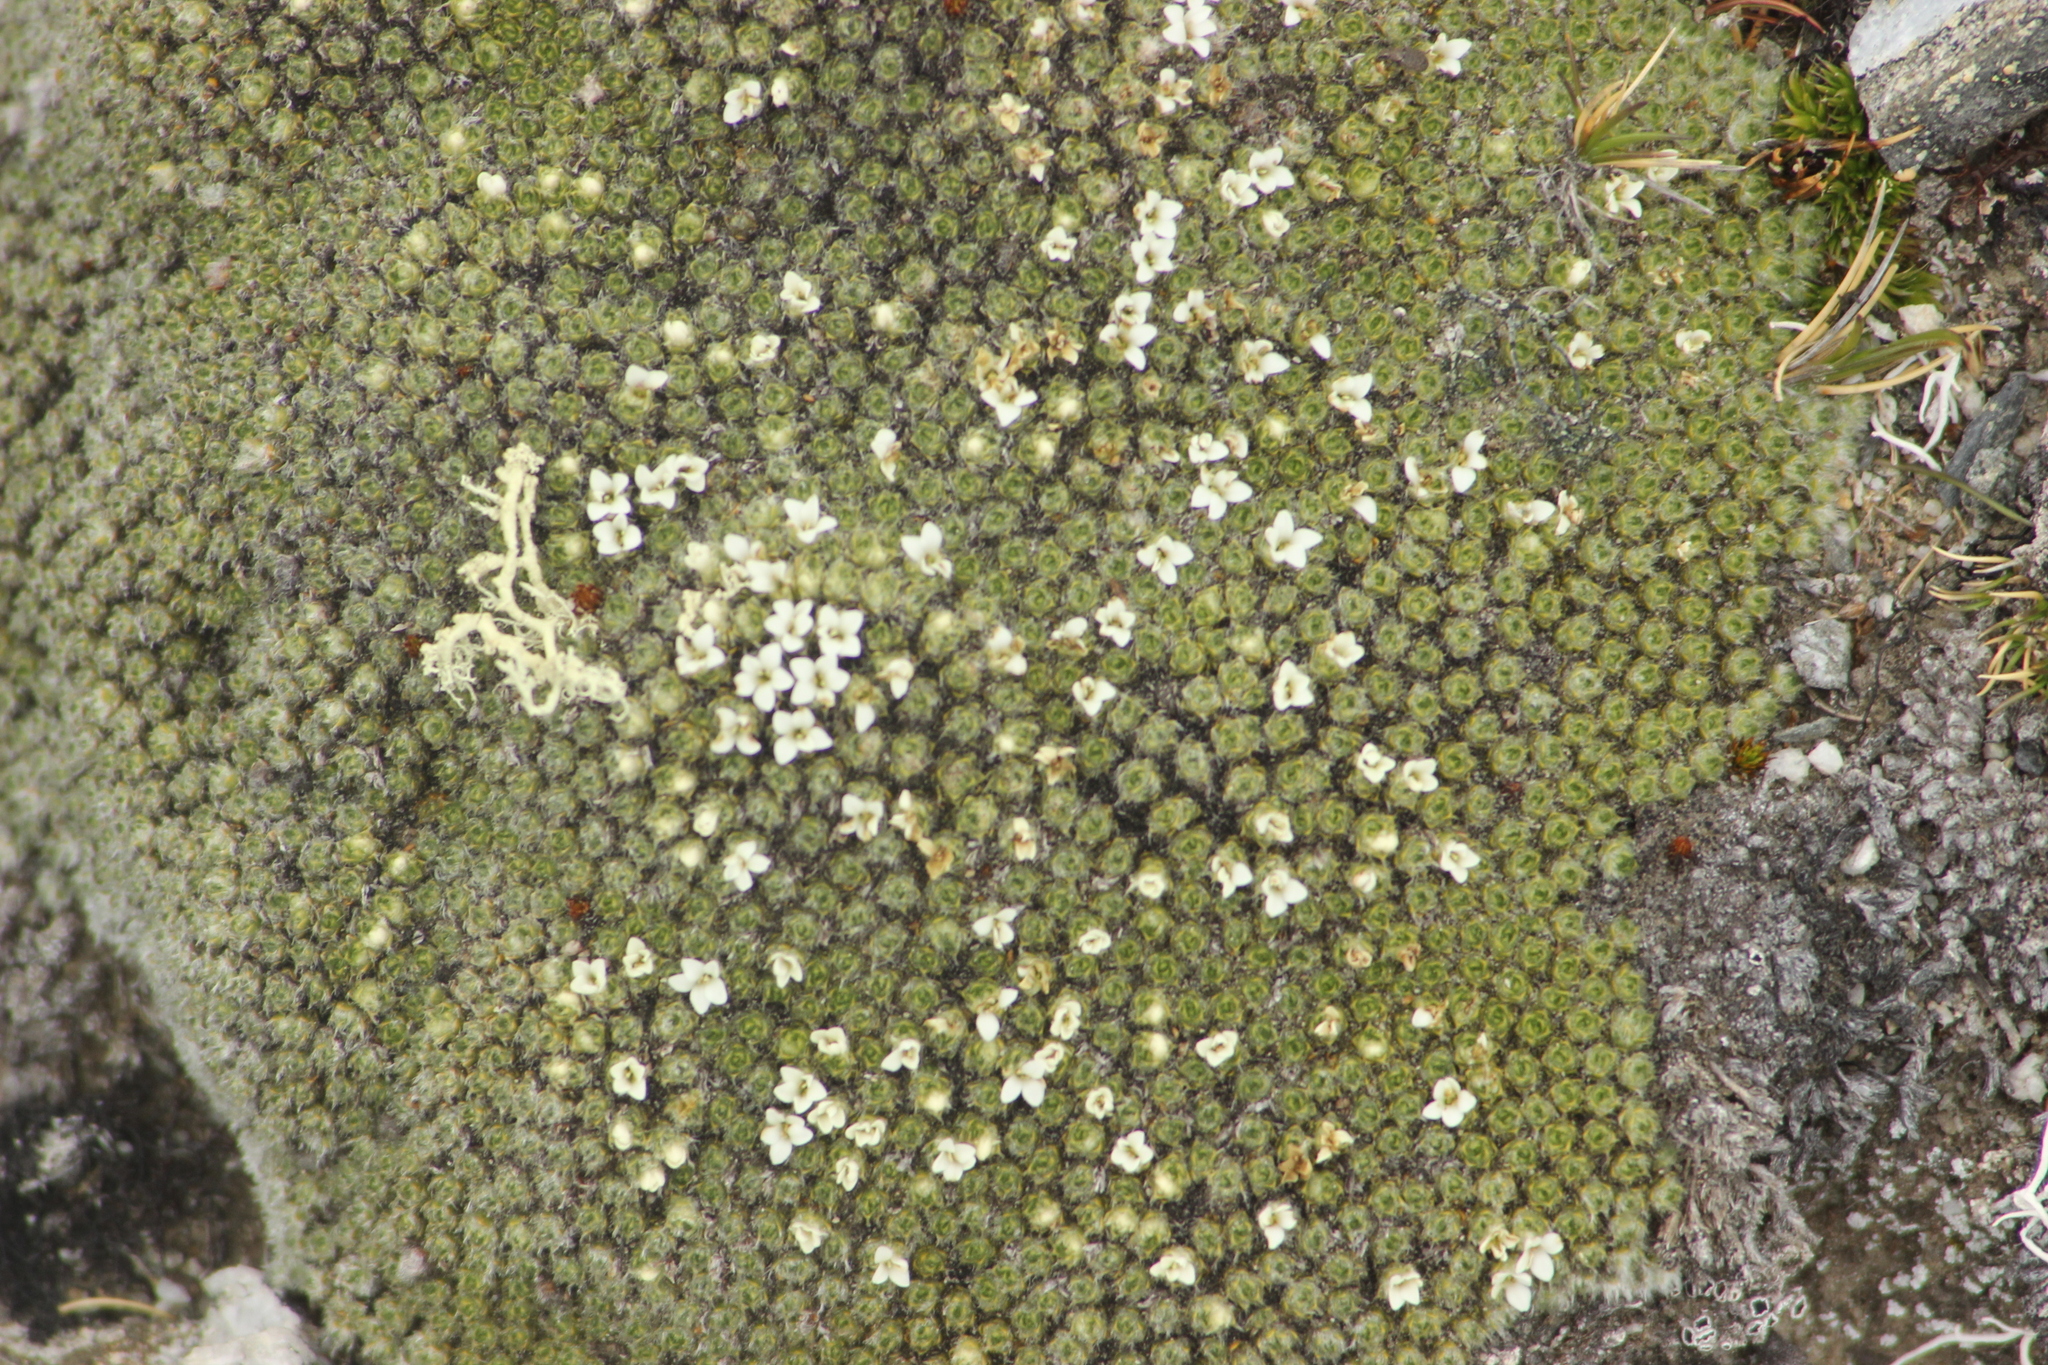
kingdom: Plantae
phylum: Tracheophyta
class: Magnoliopsida
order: Lamiales
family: Plantaginaceae
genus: Veronica
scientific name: Veronica thomsonii
